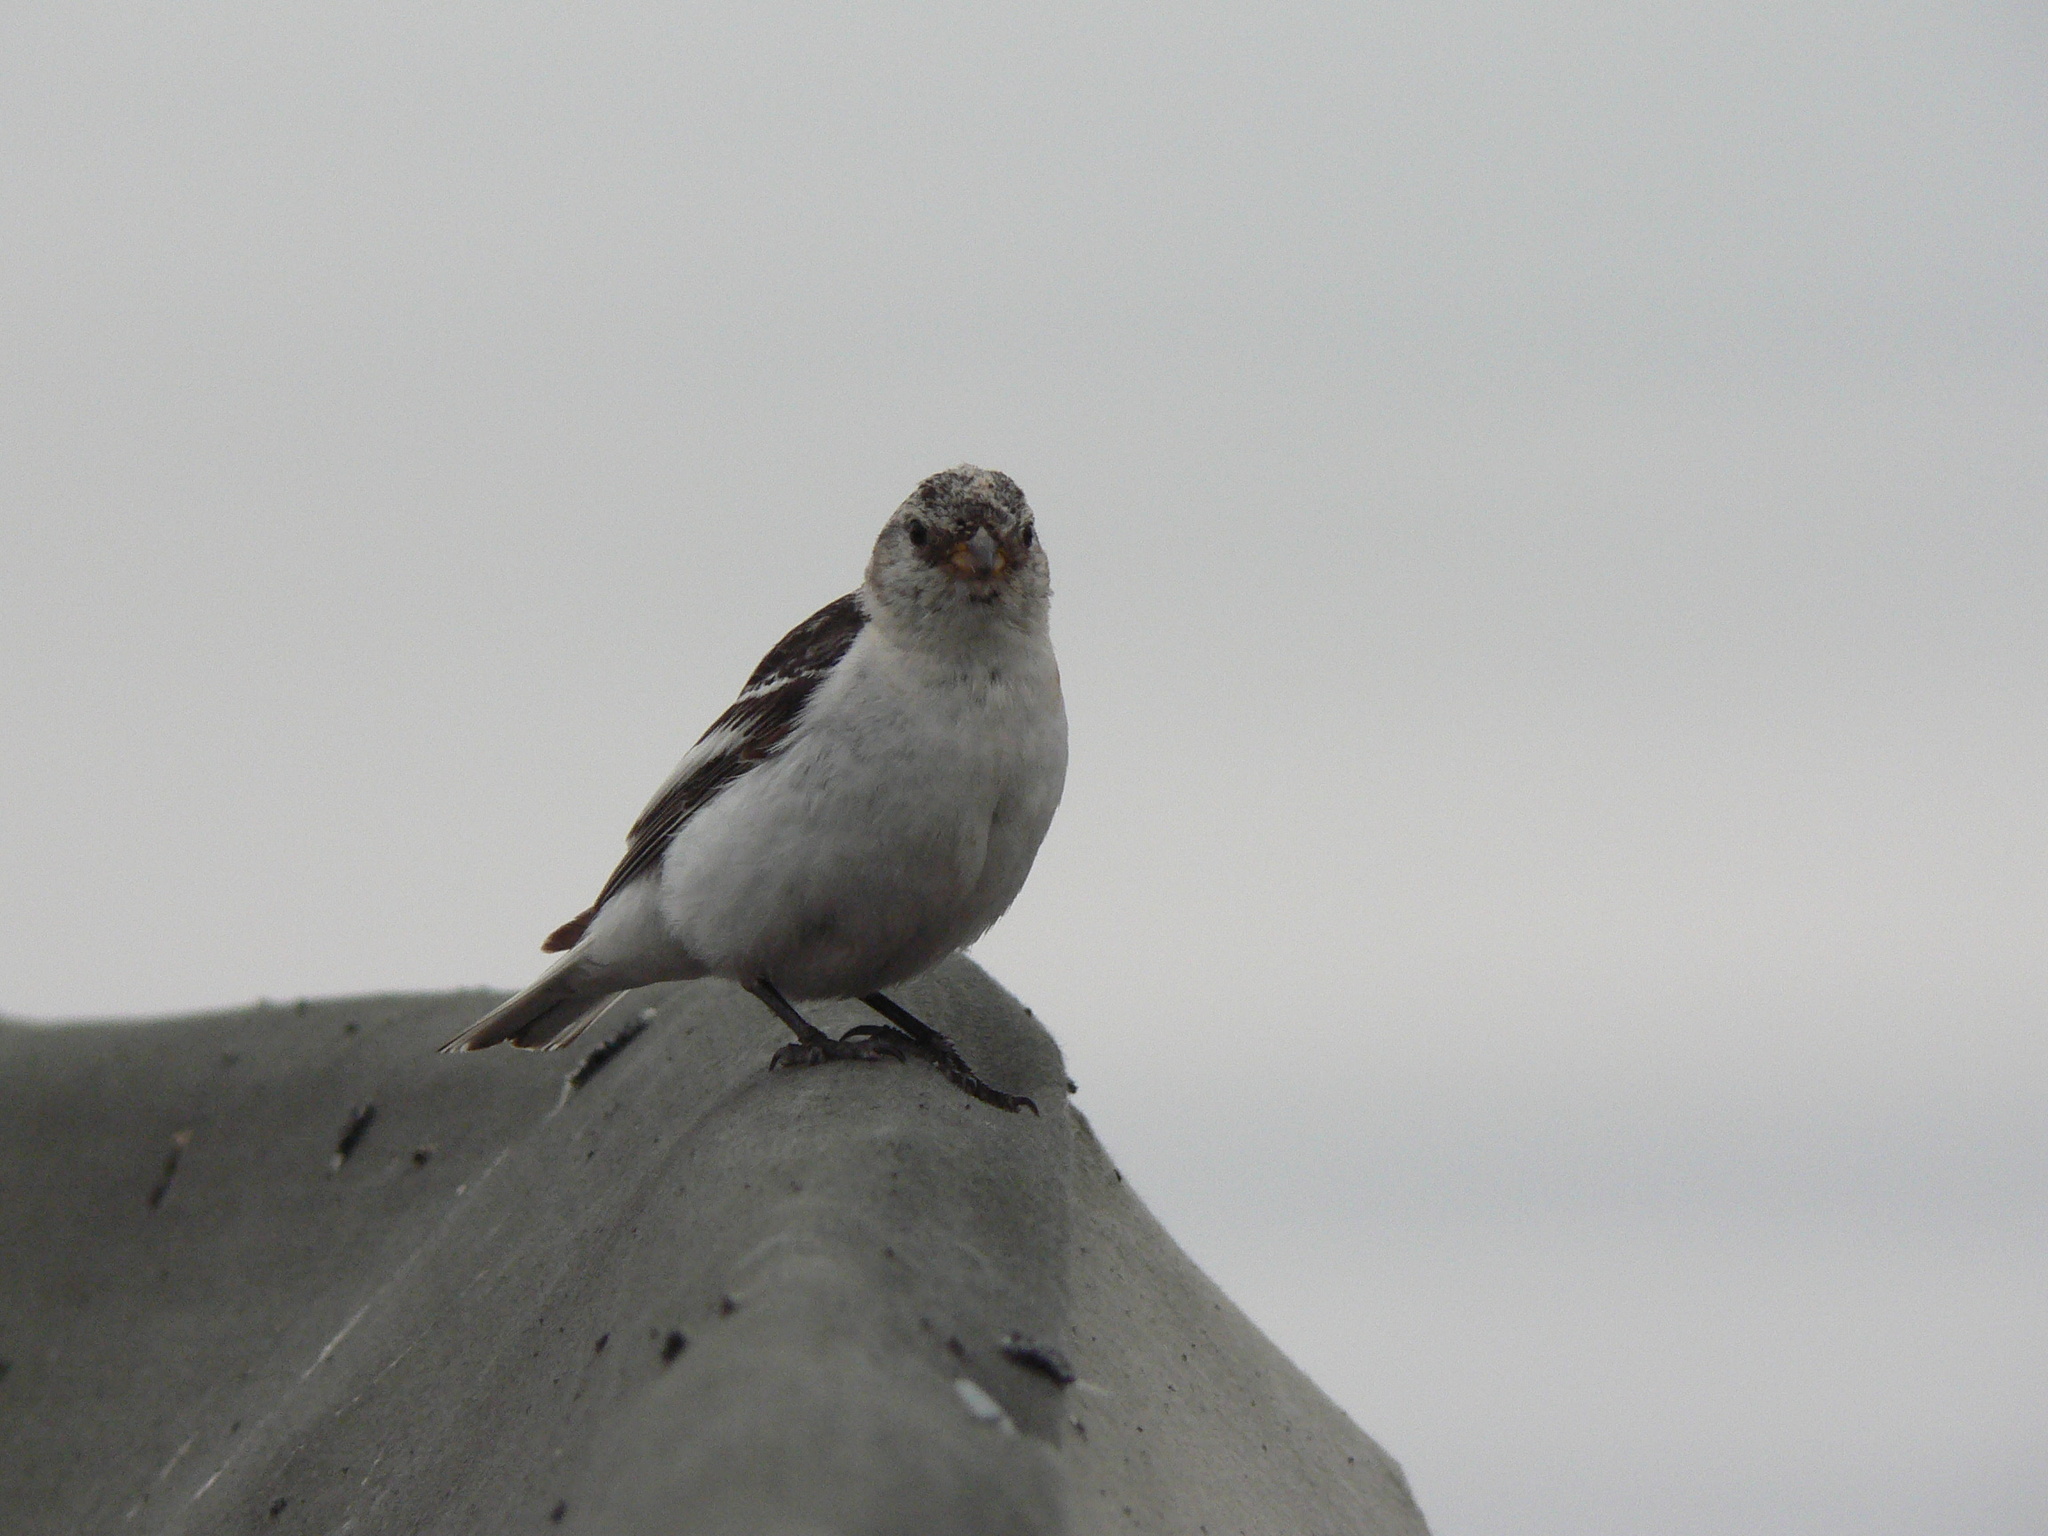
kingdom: Animalia
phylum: Chordata
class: Aves
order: Passeriformes
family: Calcariidae
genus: Plectrophenax
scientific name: Plectrophenax nivalis
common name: Snow bunting
